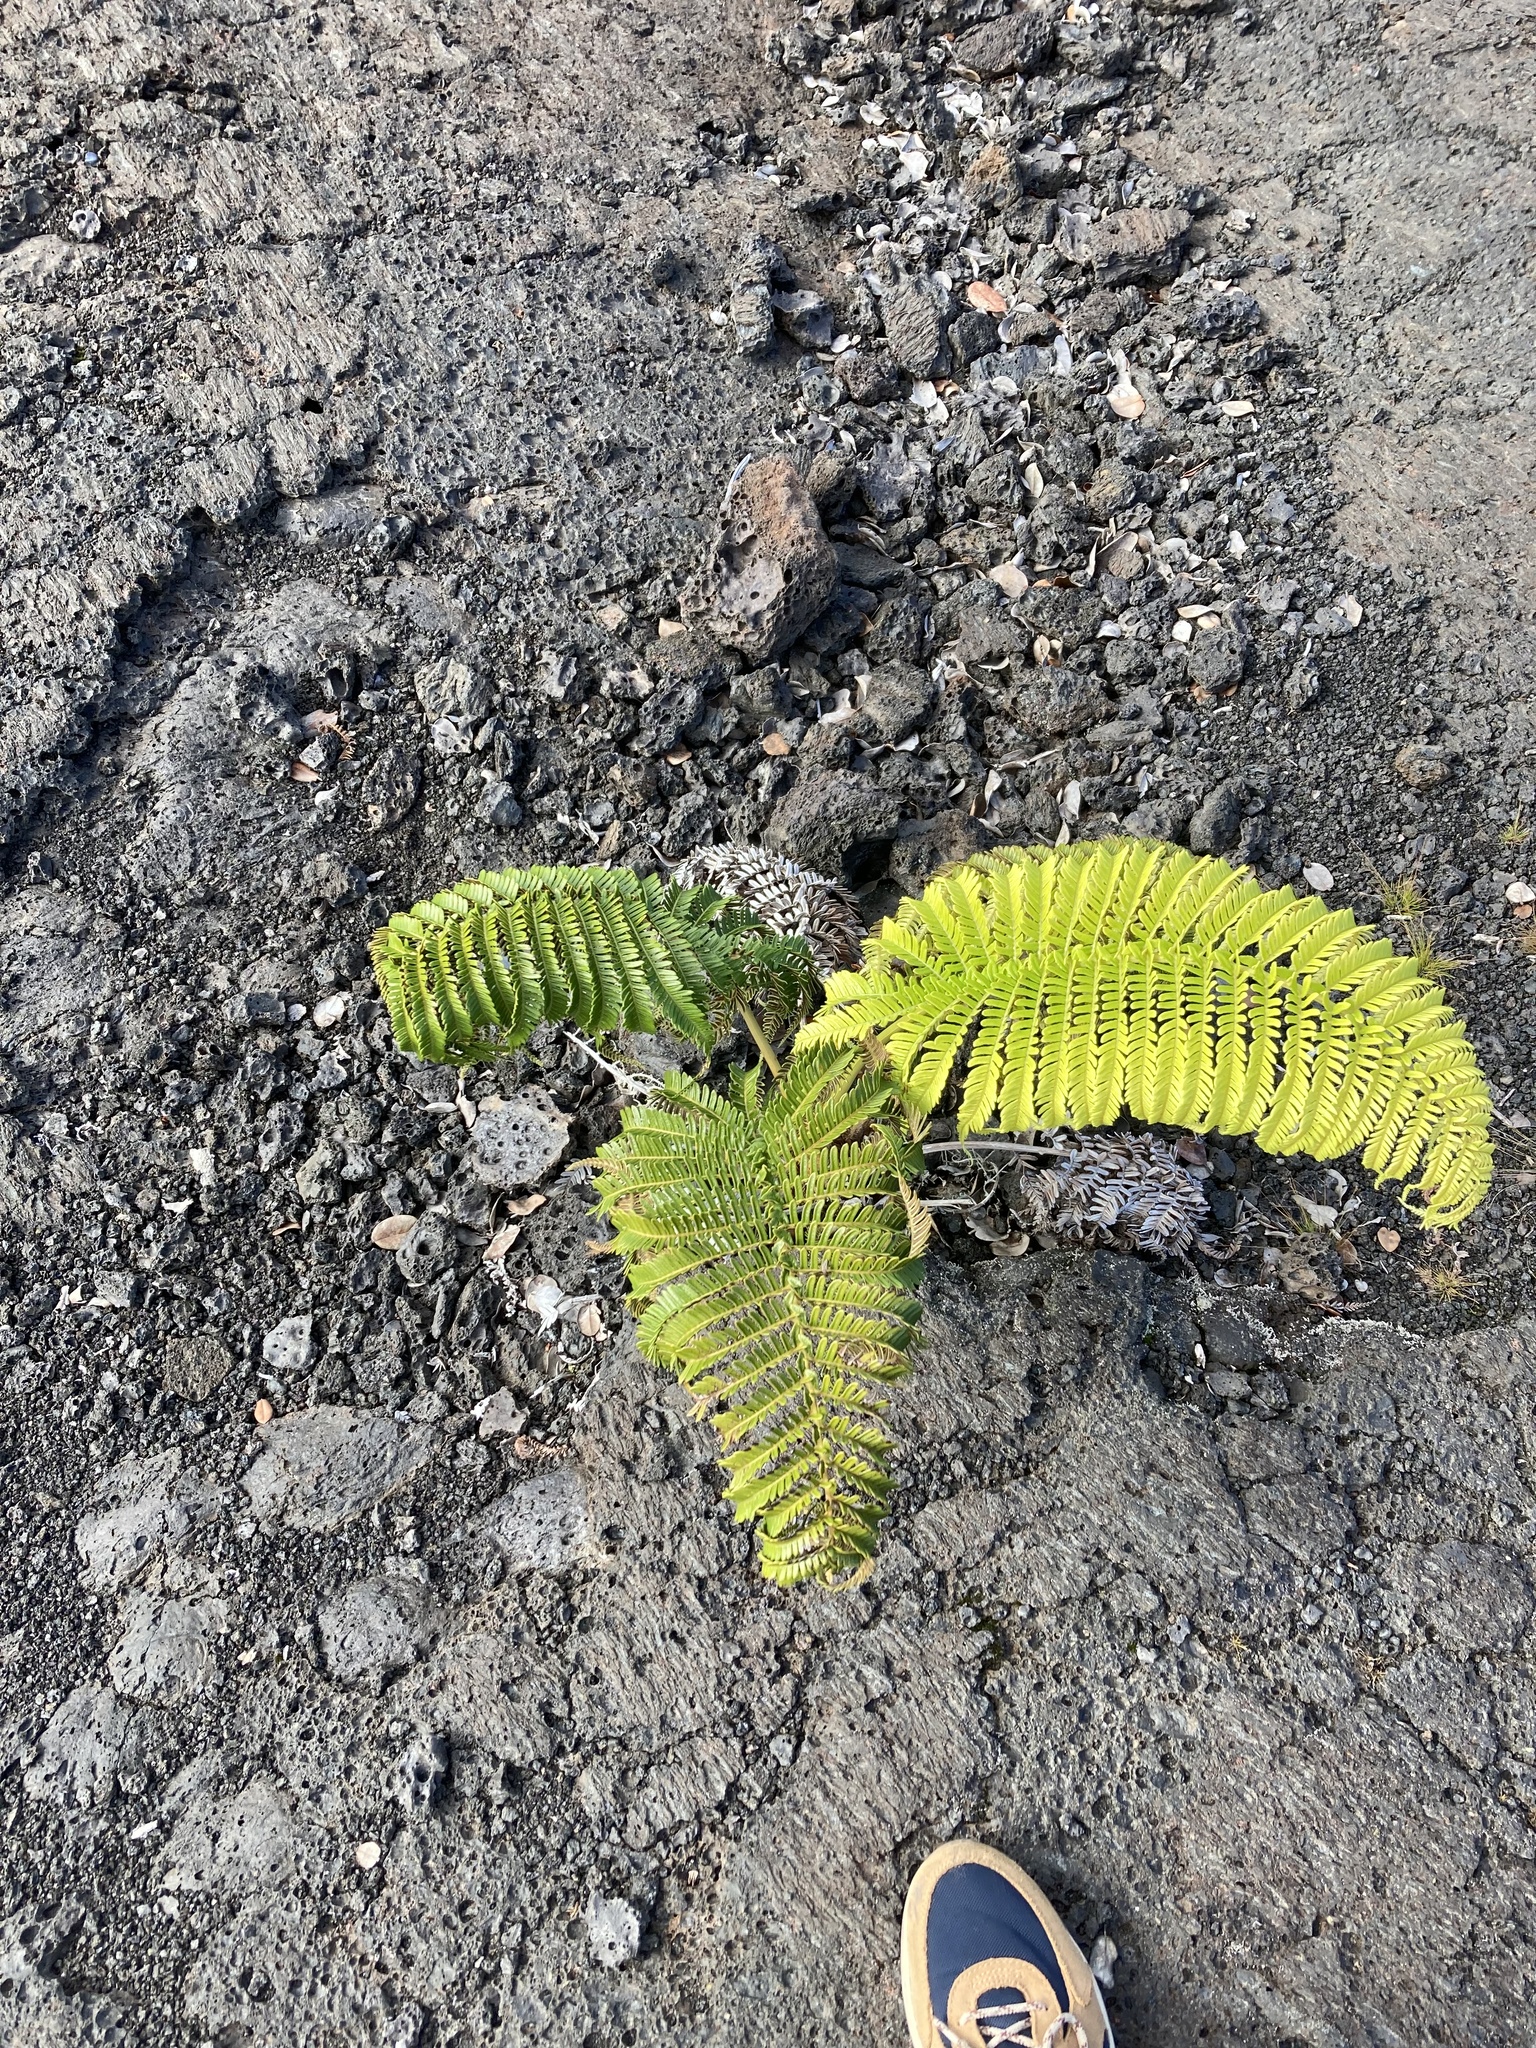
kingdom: Plantae
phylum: Tracheophyta
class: Polypodiopsida
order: Polypodiales
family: Blechnaceae
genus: Sadleria
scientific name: Sadleria cyatheoides
